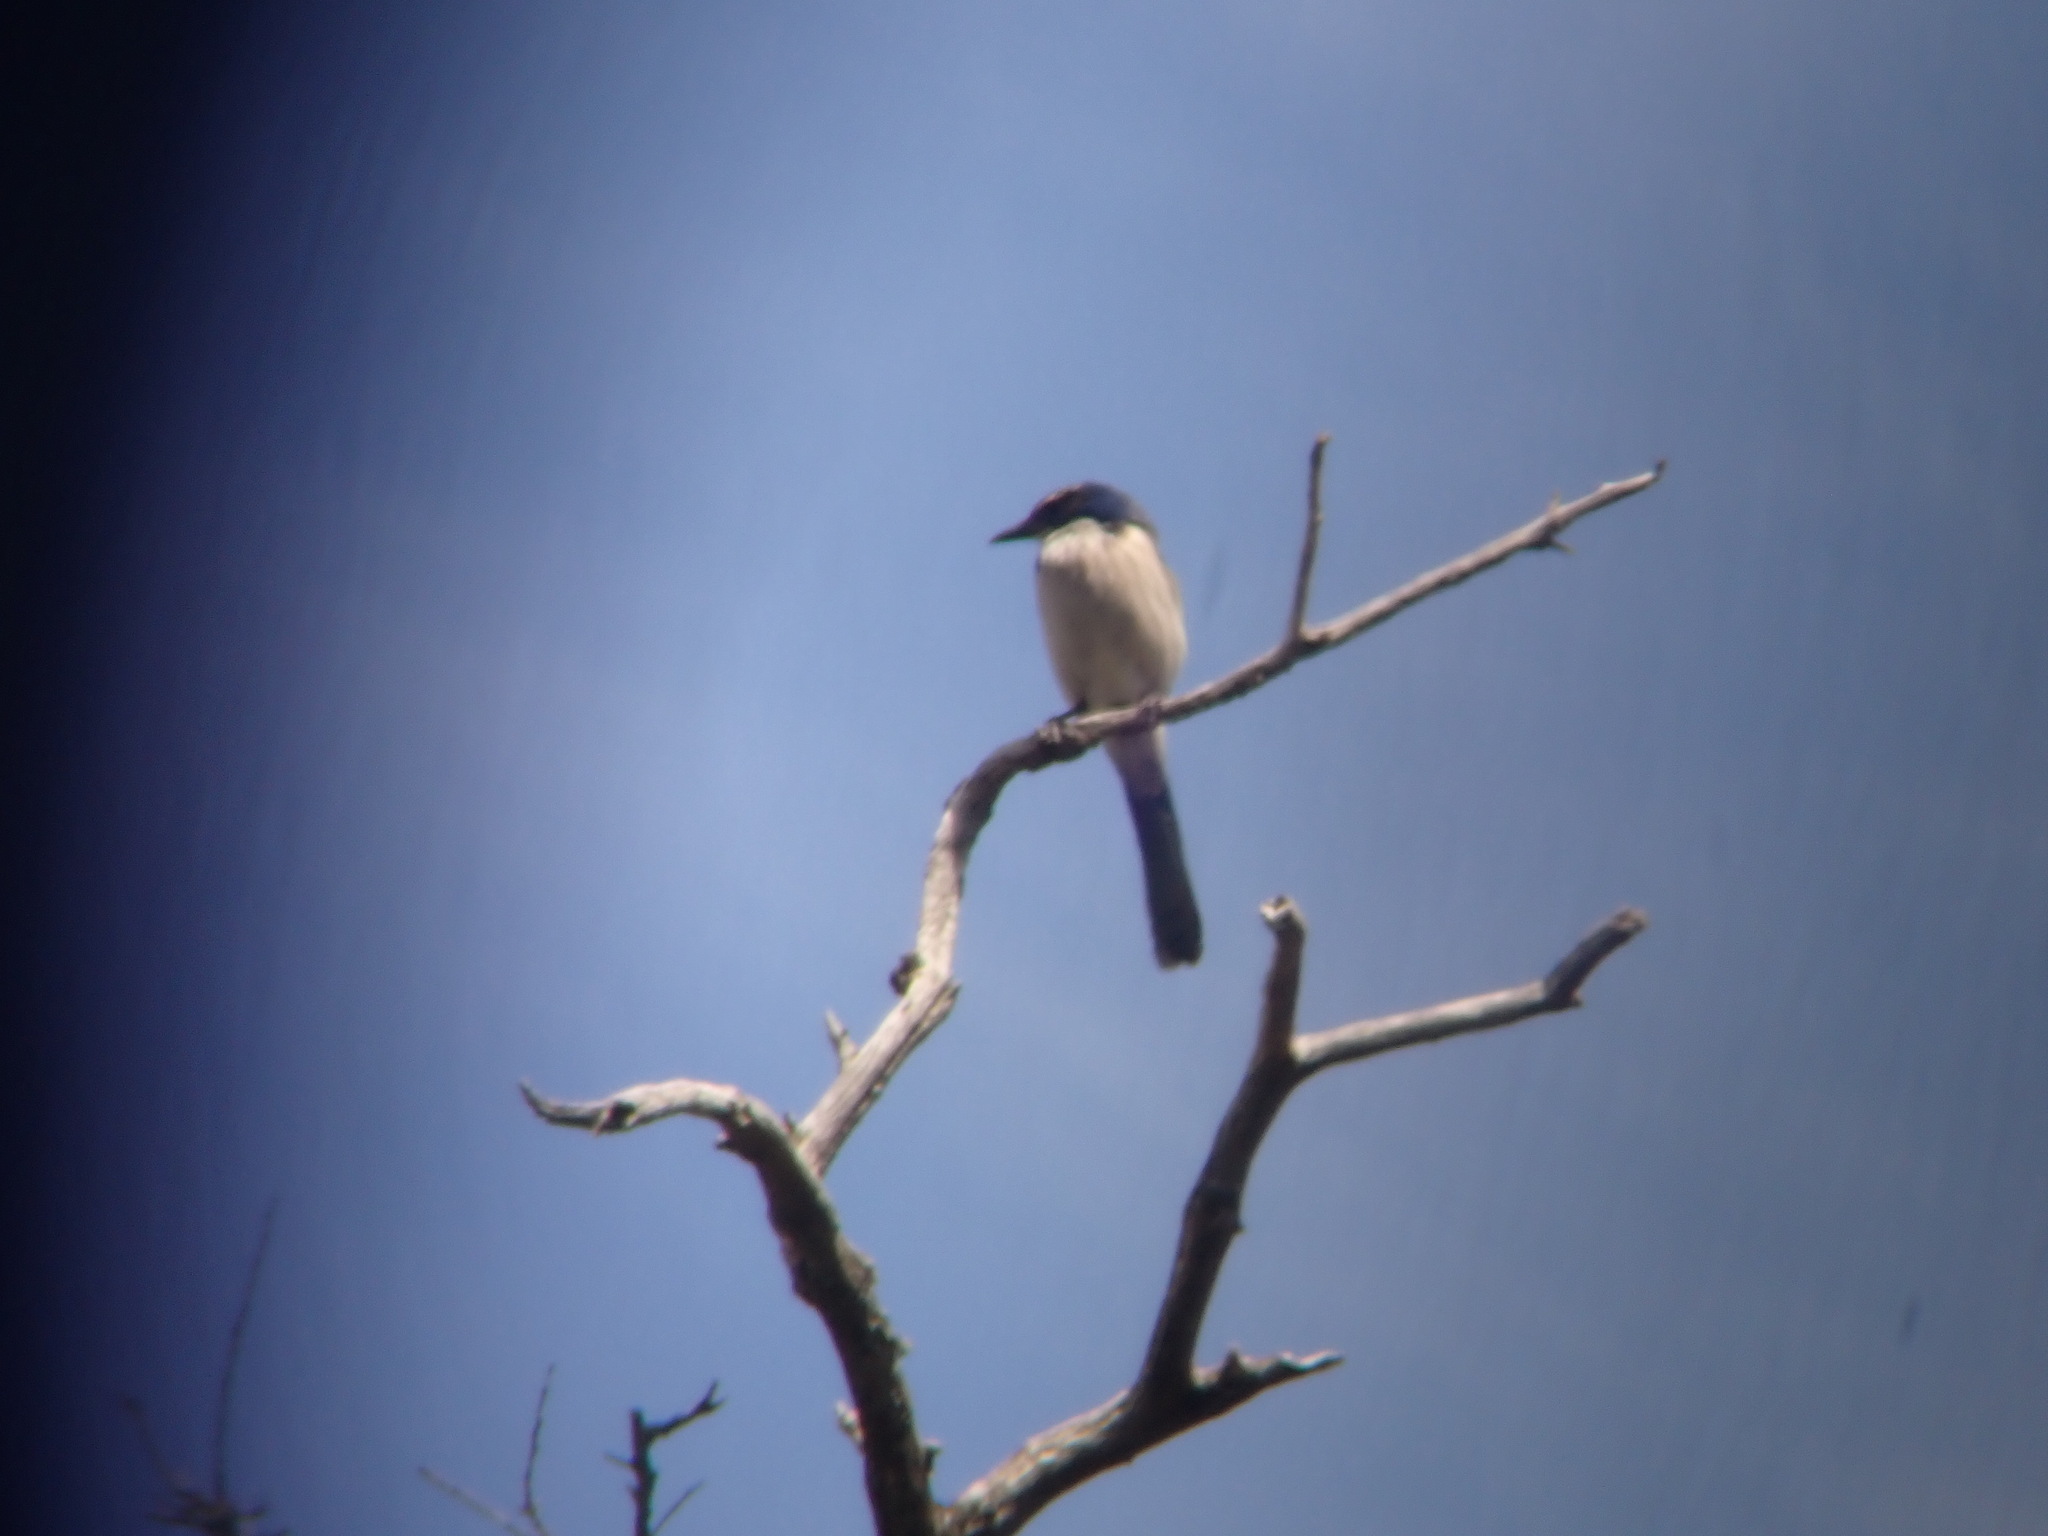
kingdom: Animalia
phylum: Chordata
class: Aves
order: Passeriformes
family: Corvidae
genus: Aphelocoma
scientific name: Aphelocoma californica
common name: California scrub-jay
